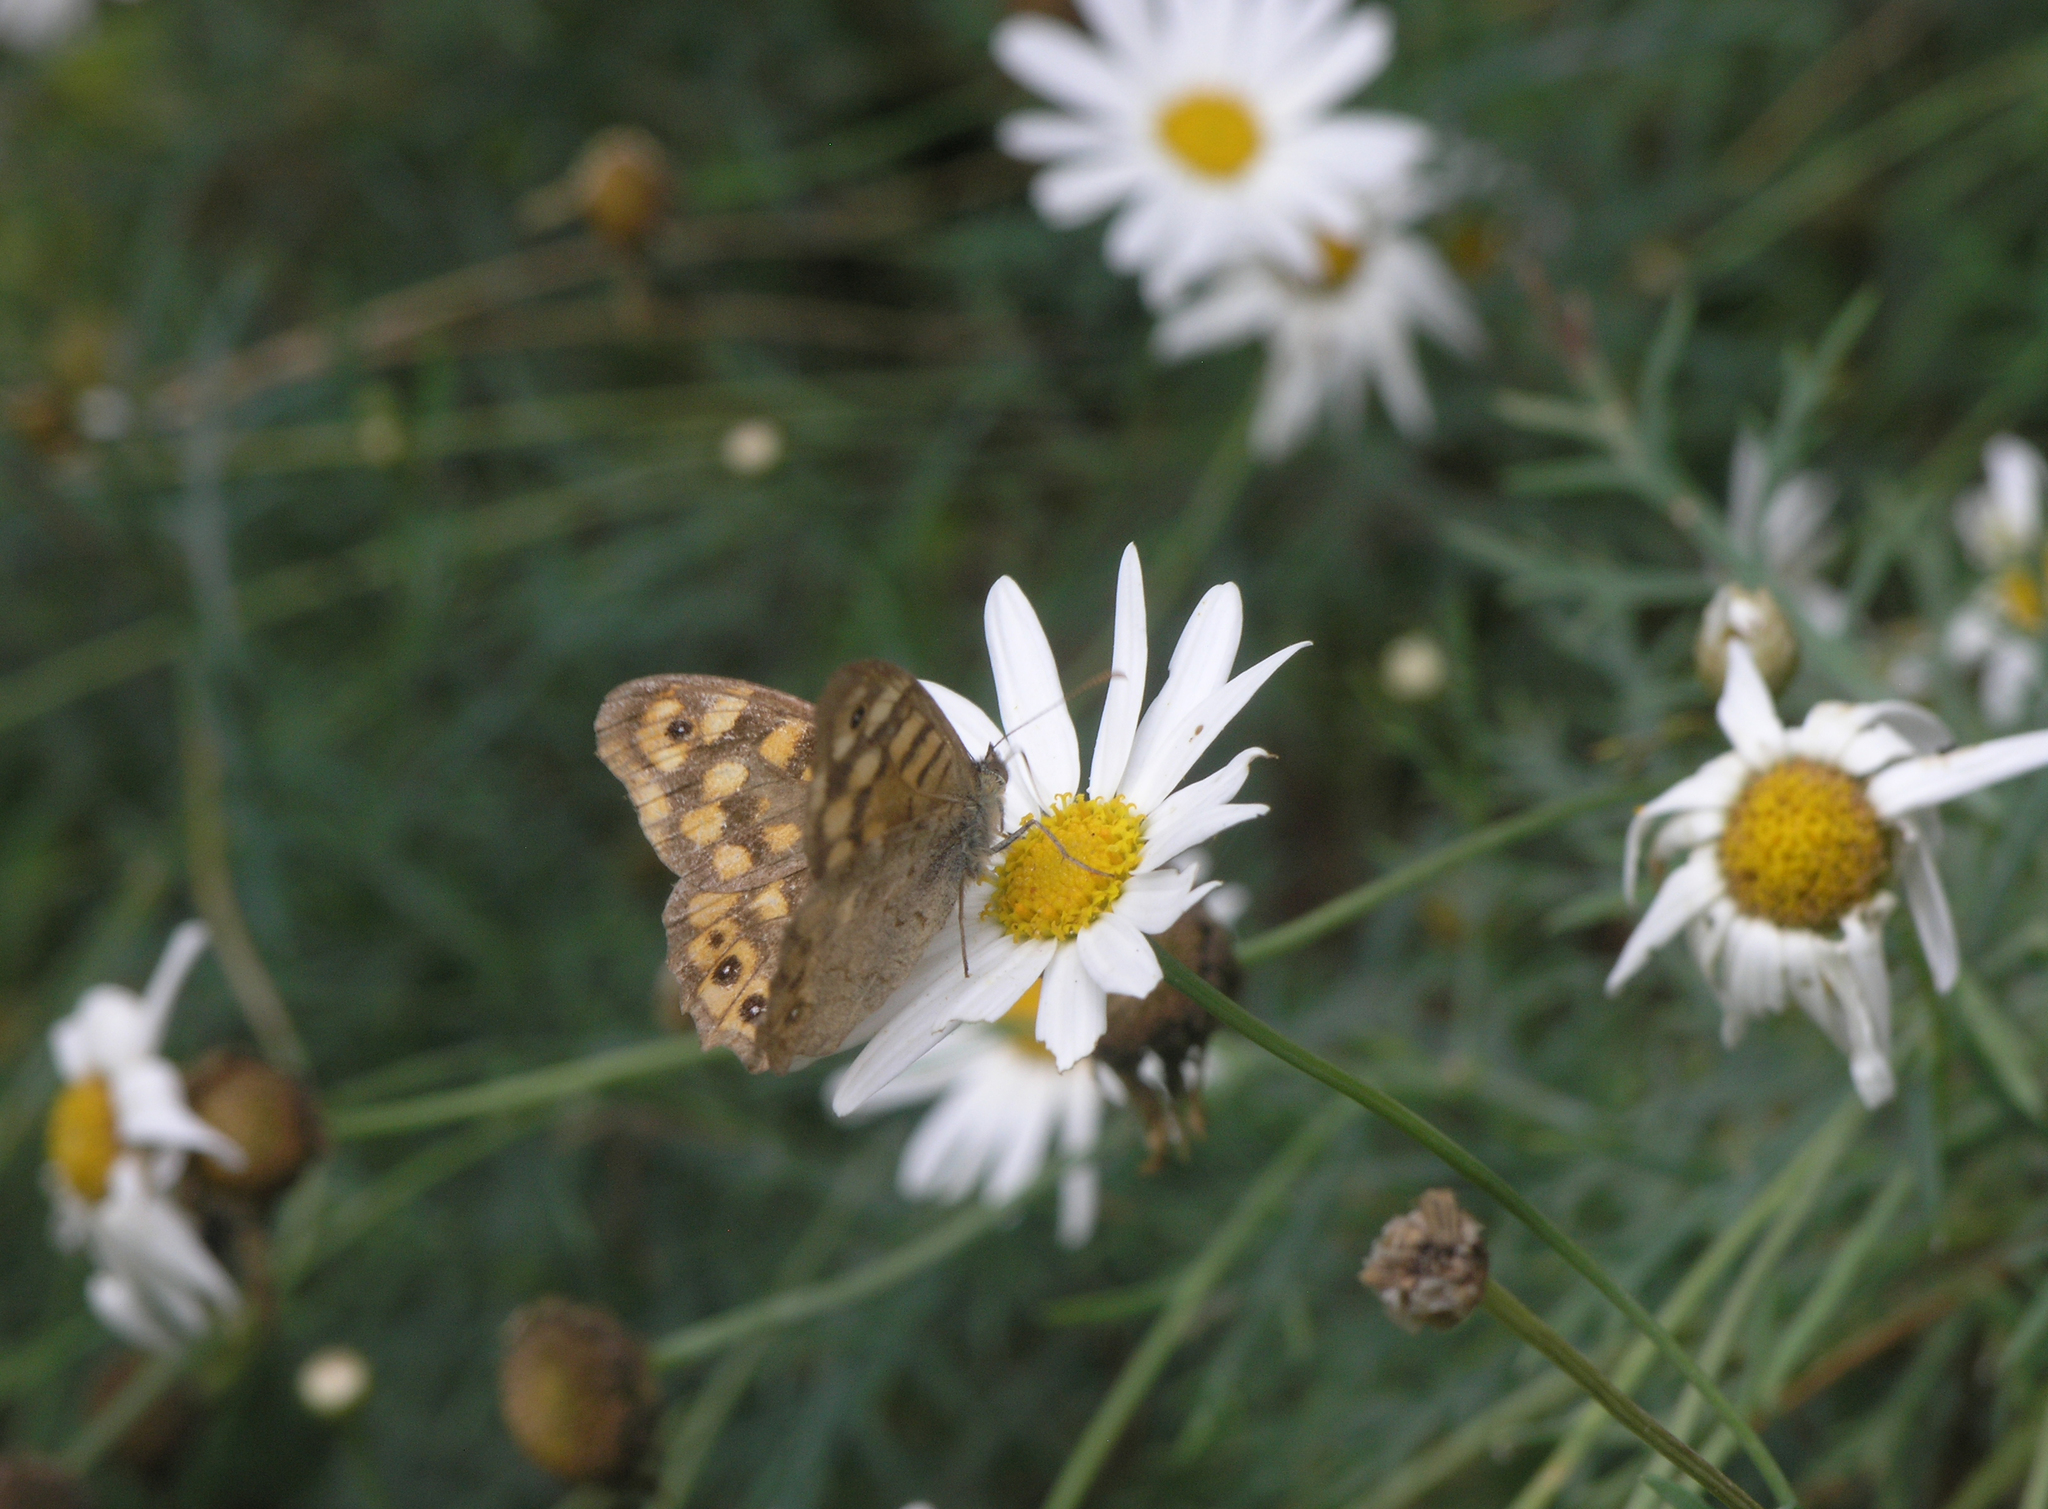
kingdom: Animalia
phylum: Arthropoda
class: Insecta
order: Lepidoptera
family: Nymphalidae
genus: Pararge
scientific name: Pararge aegeria
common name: Speckled wood
